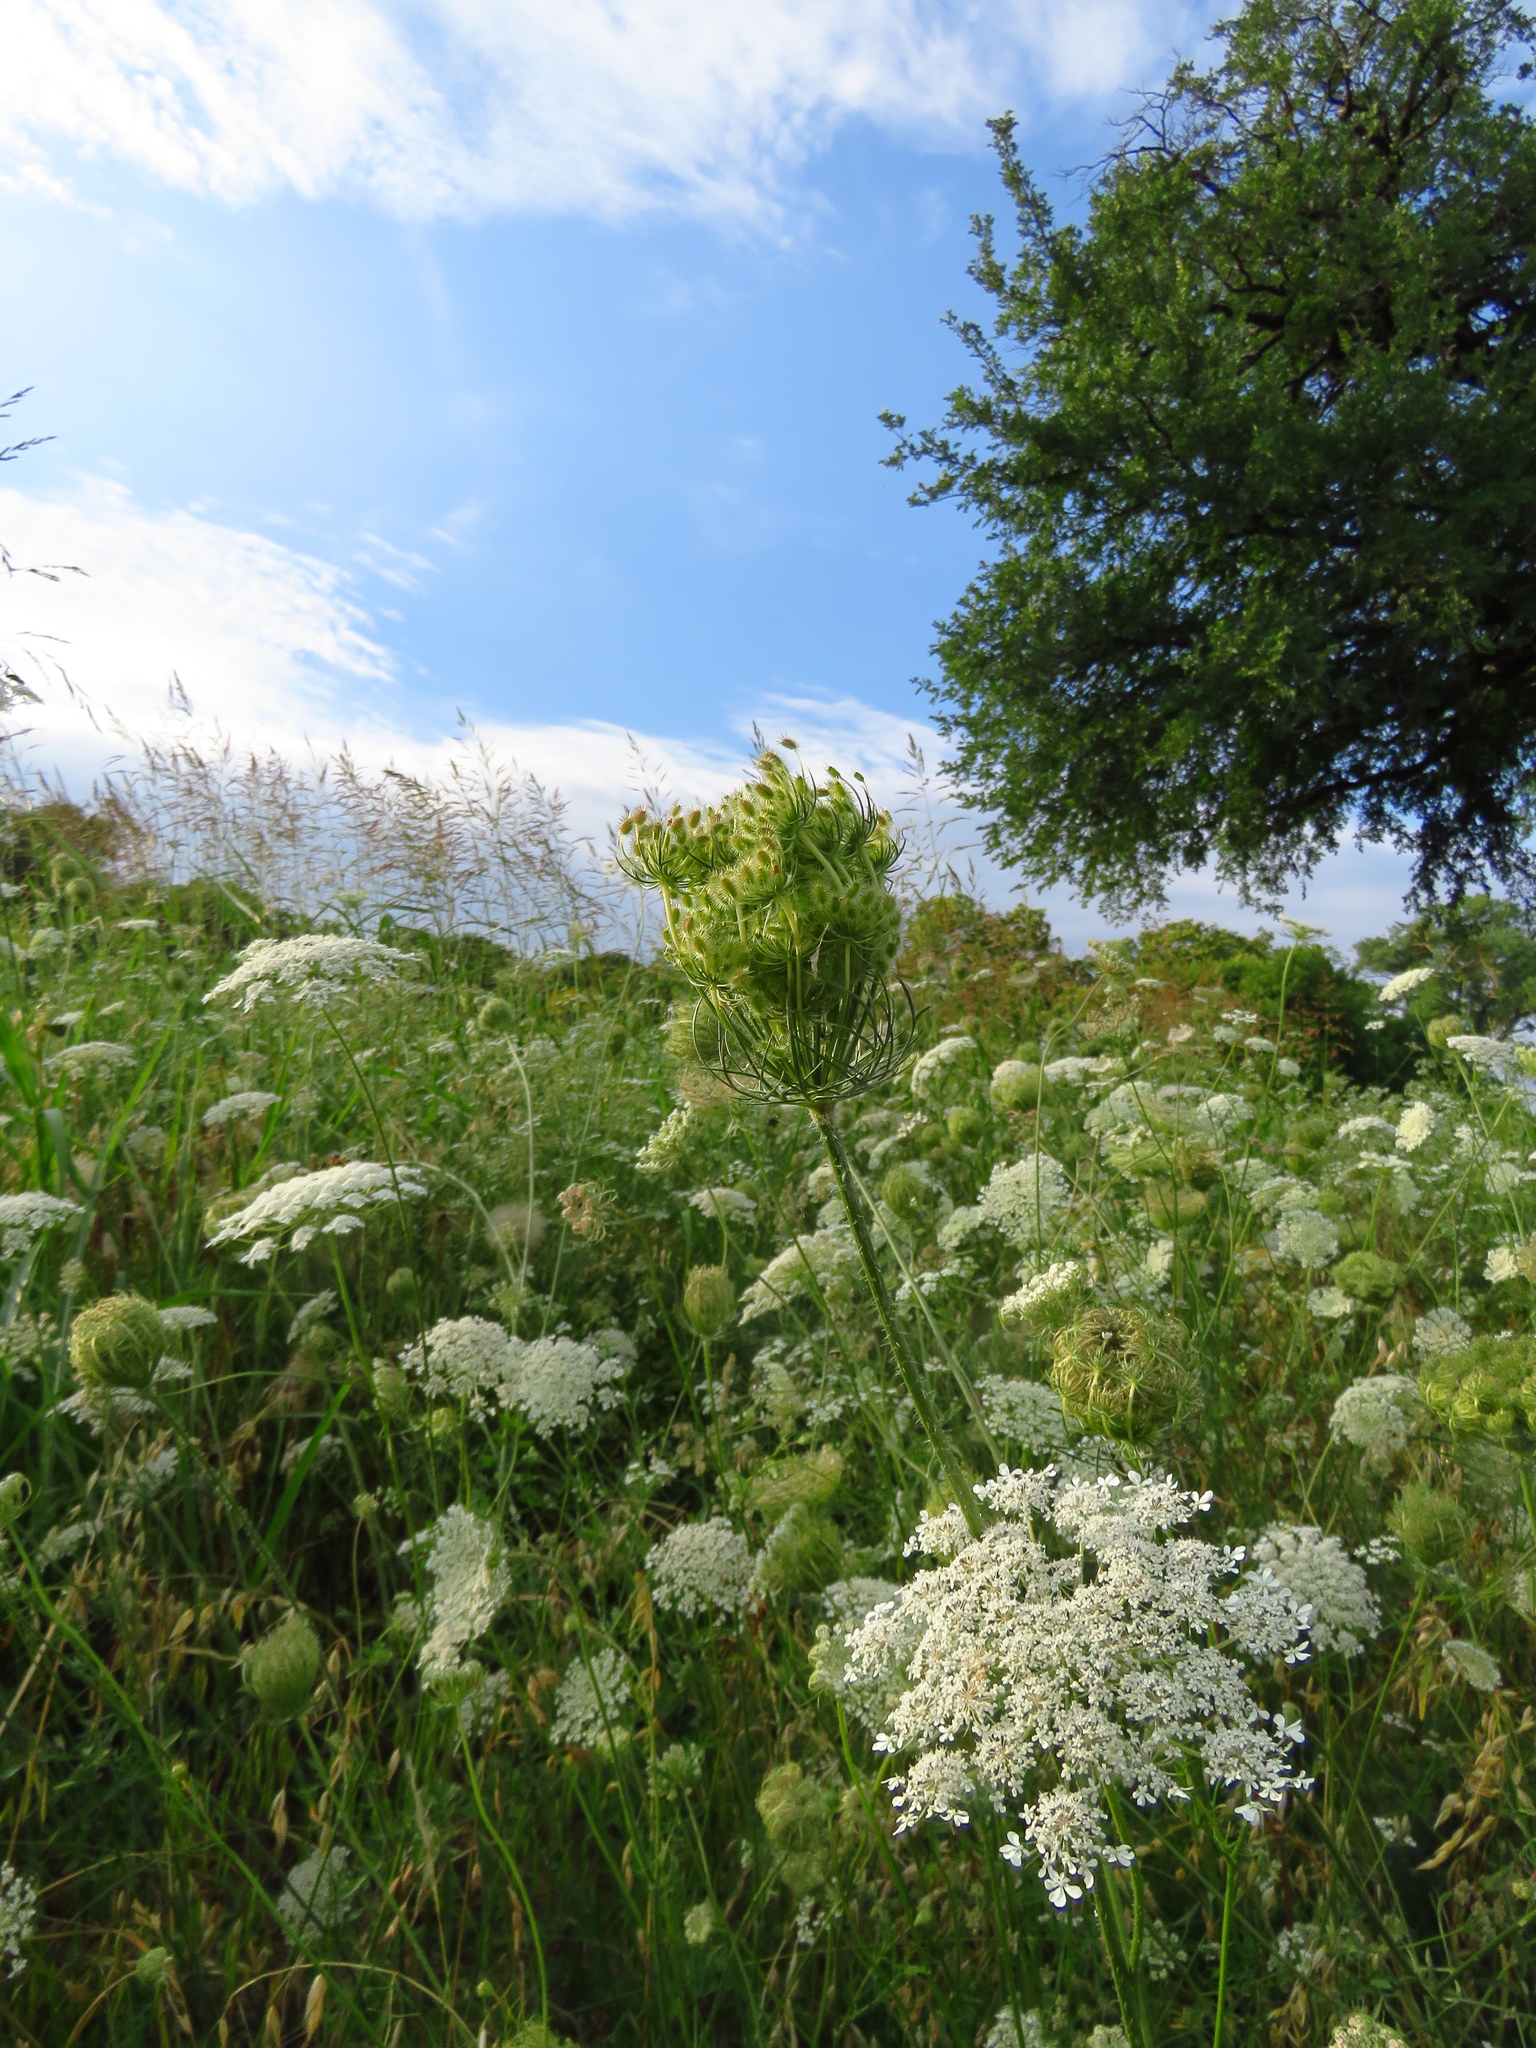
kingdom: Plantae
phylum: Tracheophyta
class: Magnoliopsida
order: Apiales
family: Apiaceae
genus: Daucus
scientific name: Daucus carota
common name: Wild carrot
